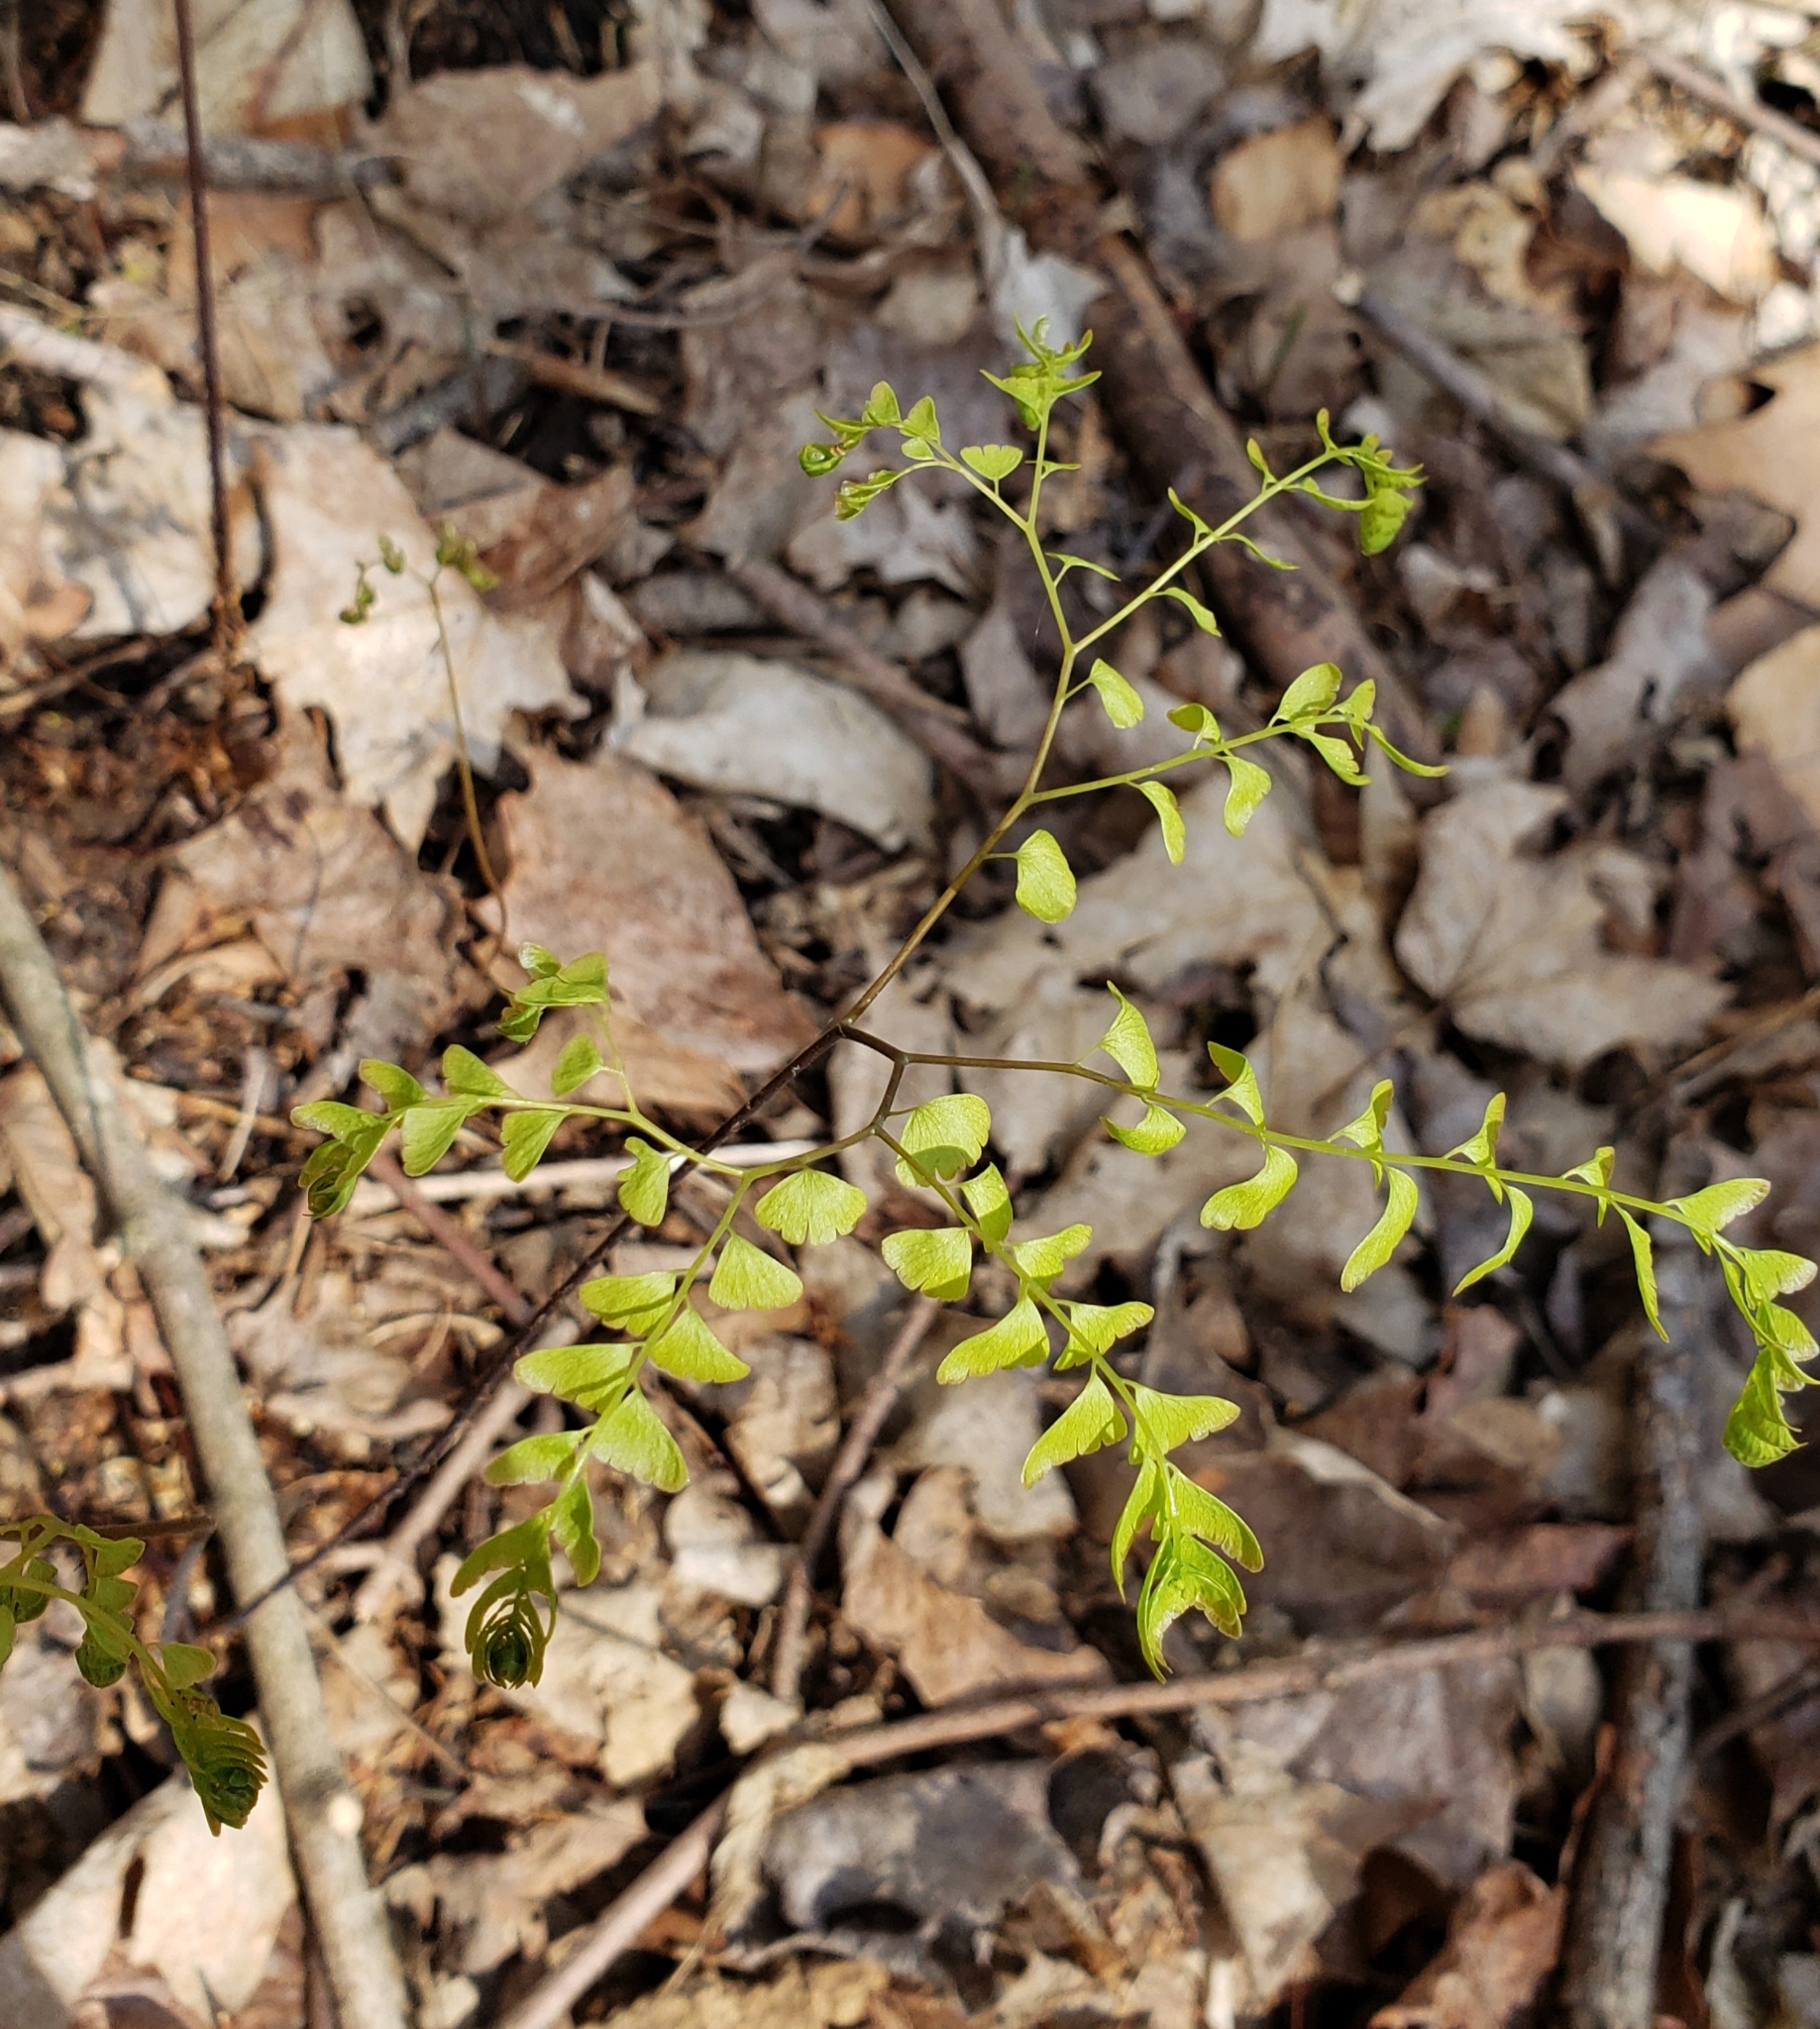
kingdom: Plantae
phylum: Tracheophyta
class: Polypodiopsida
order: Polypodiales
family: Pteridaceae
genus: Adiantum
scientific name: Adiantum pedatum
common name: Five-finger fern
